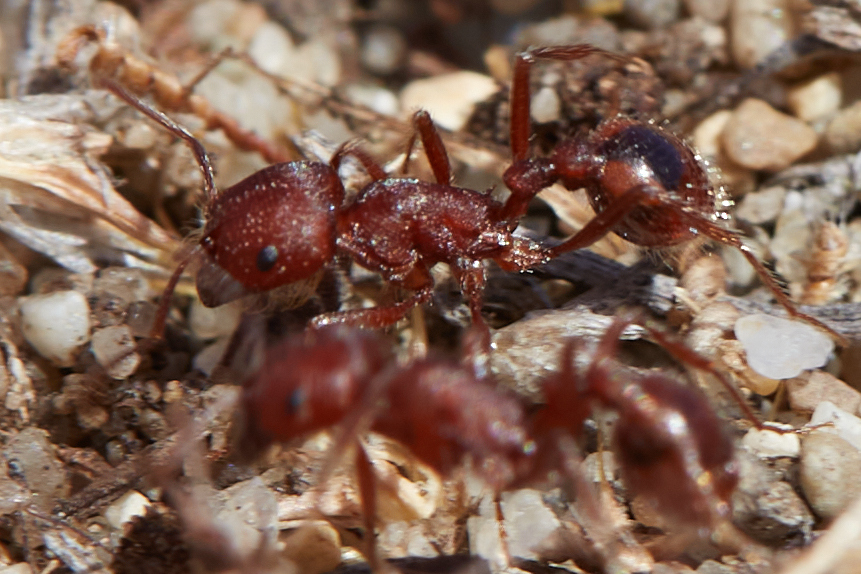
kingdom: Animalia
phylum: Arthropoda
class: Insecta
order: Hymenoptera
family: Formicidae
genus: Pogonomyrmex
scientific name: Pogonomyrmex subdentatus
